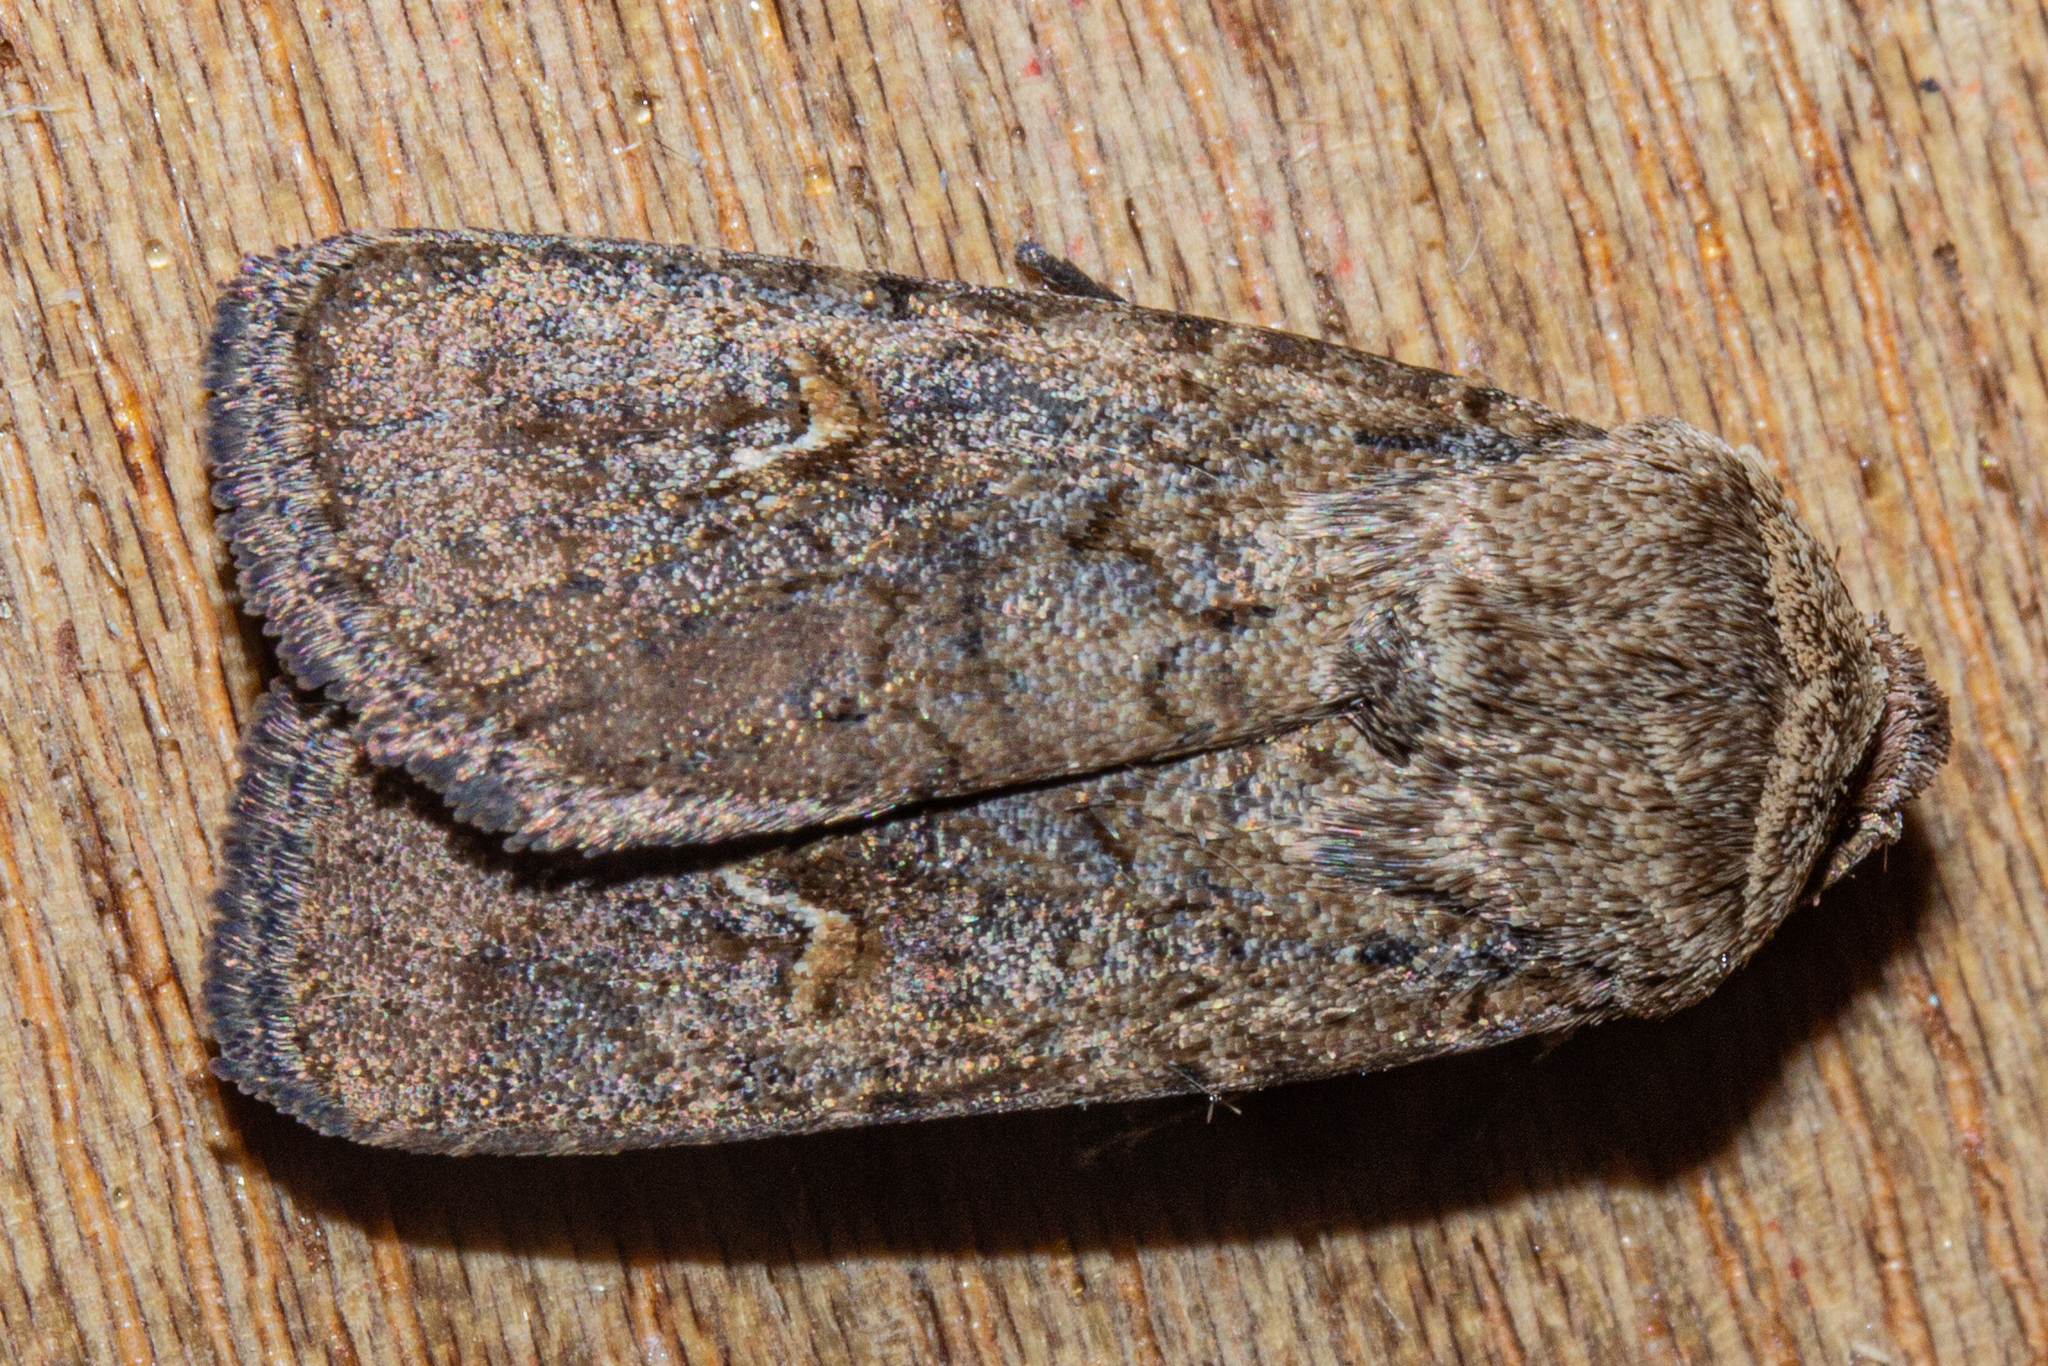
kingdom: Animalia
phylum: Arthropoda
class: Insecta
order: Lepidoptera
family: Noctuidae
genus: Proteuxoa
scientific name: Proteuxoa tetronycha
